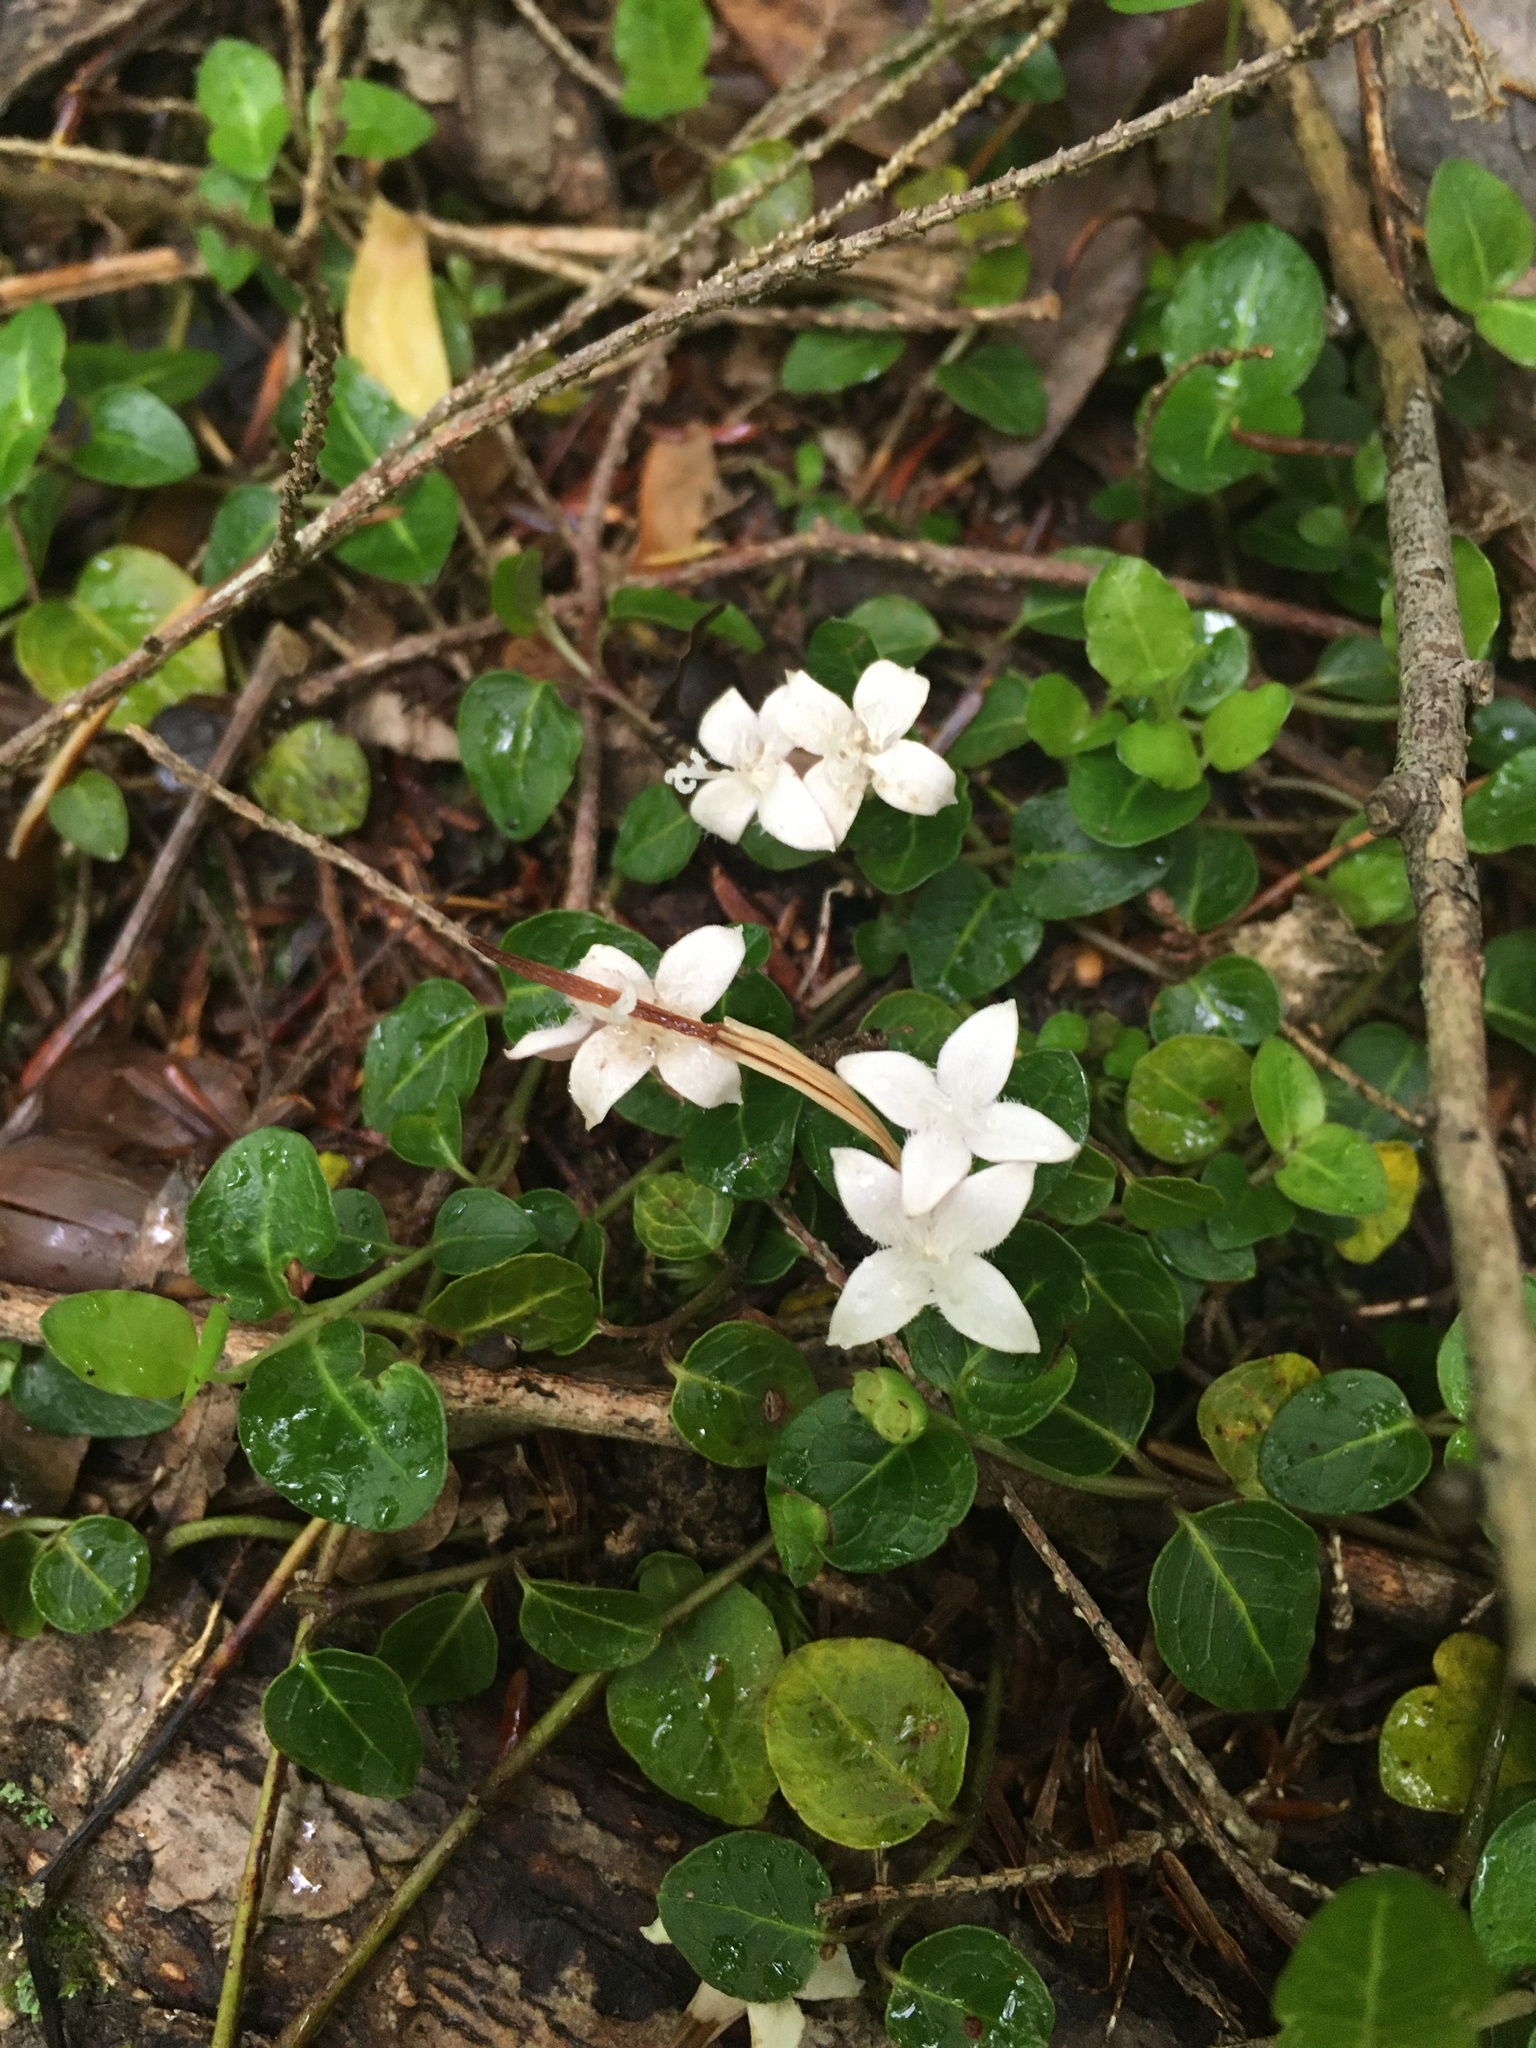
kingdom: Plantae
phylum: Tracheophyta
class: Magnoliopsida
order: Gentianales
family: Rubiaceae
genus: Mitchella
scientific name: Mitchella repens
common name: Partridge-berry
